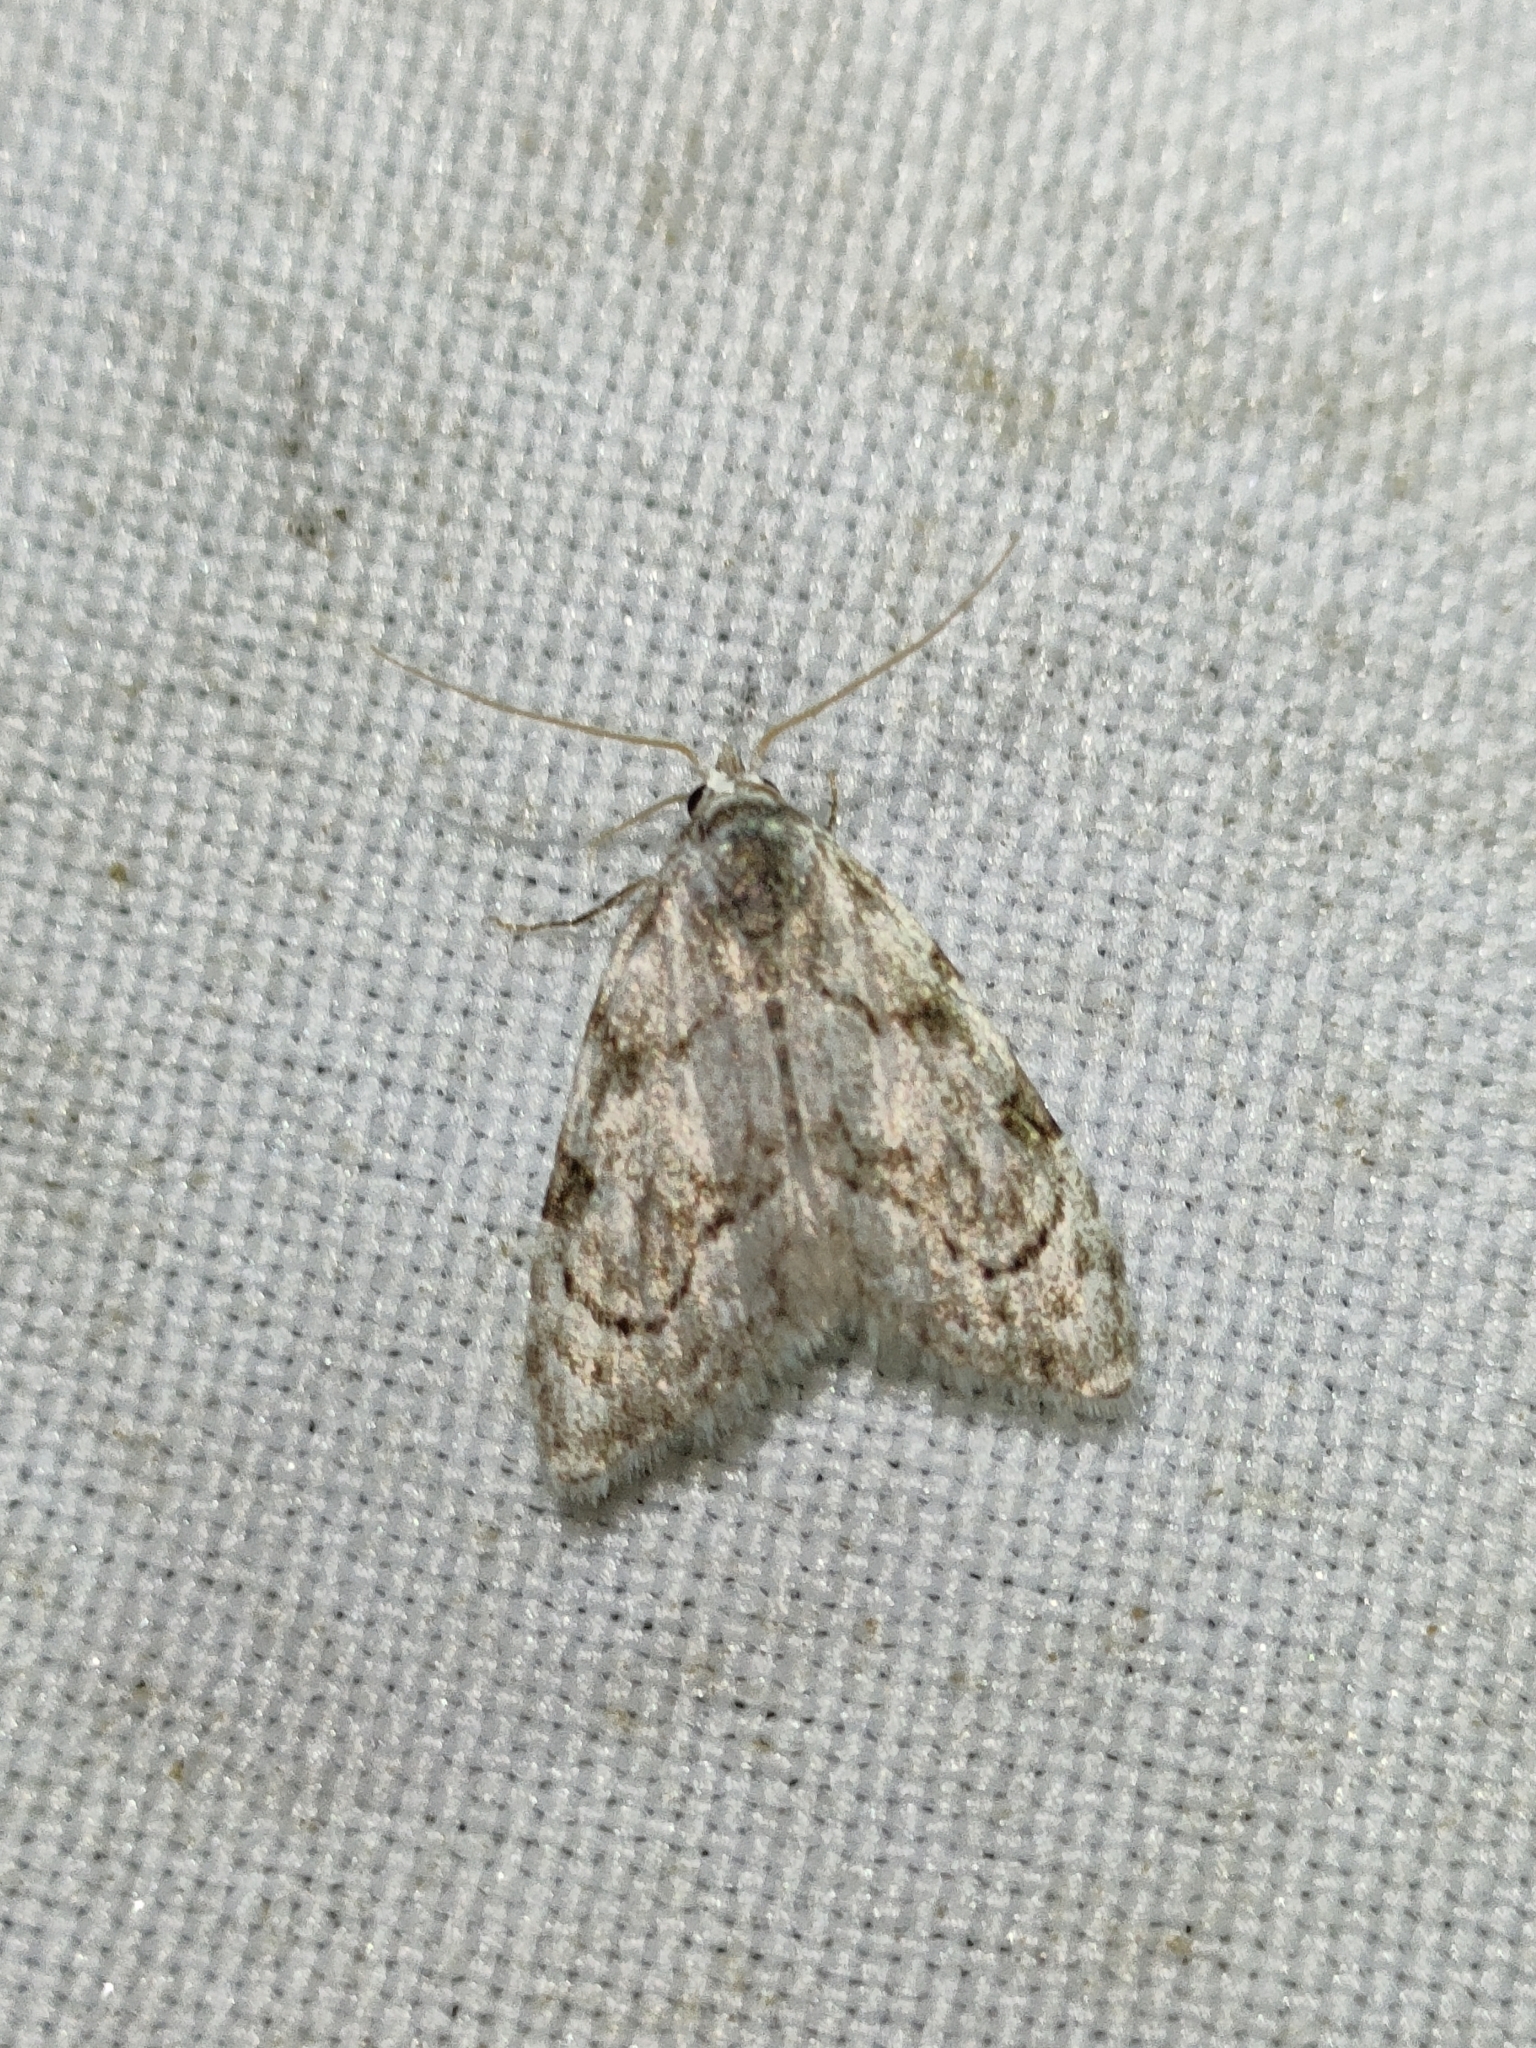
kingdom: Animalia
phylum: Arthropoda
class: Insecta
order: Lepidoptera
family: Nolidae
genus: Nola
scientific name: Nola confusalis
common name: Least black arches
